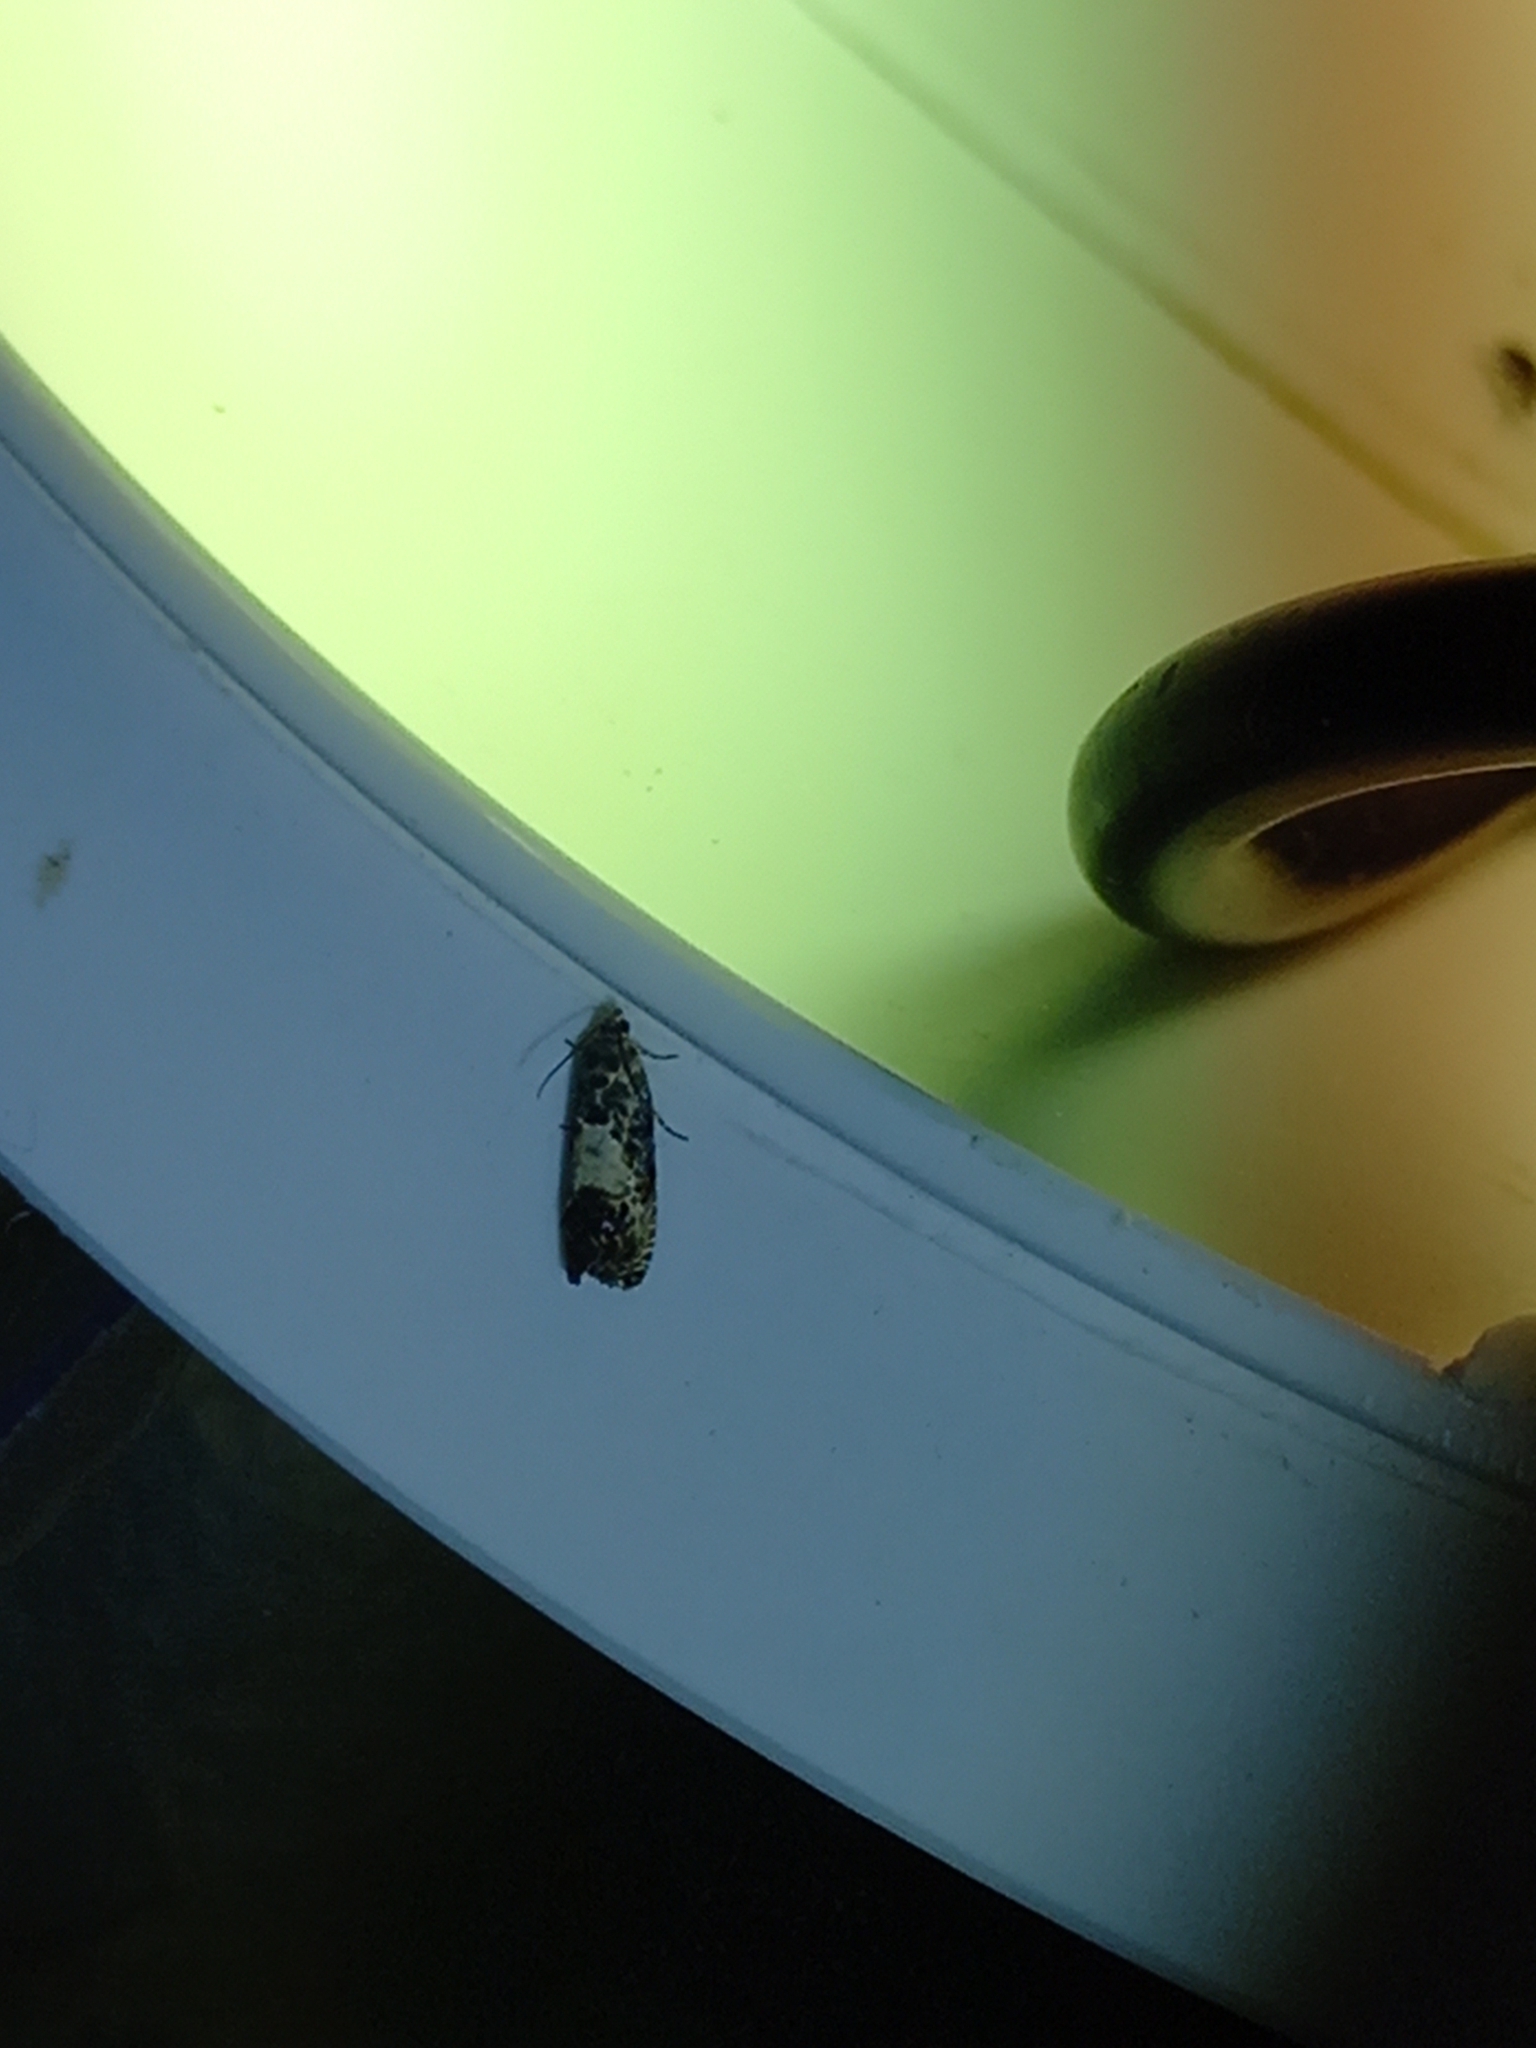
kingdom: Animalia
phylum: Arthropoda
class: Insecta
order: Lepidoptera
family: Tortricidae
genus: Pammene
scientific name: Pammene fasciana
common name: Acorn piercer
